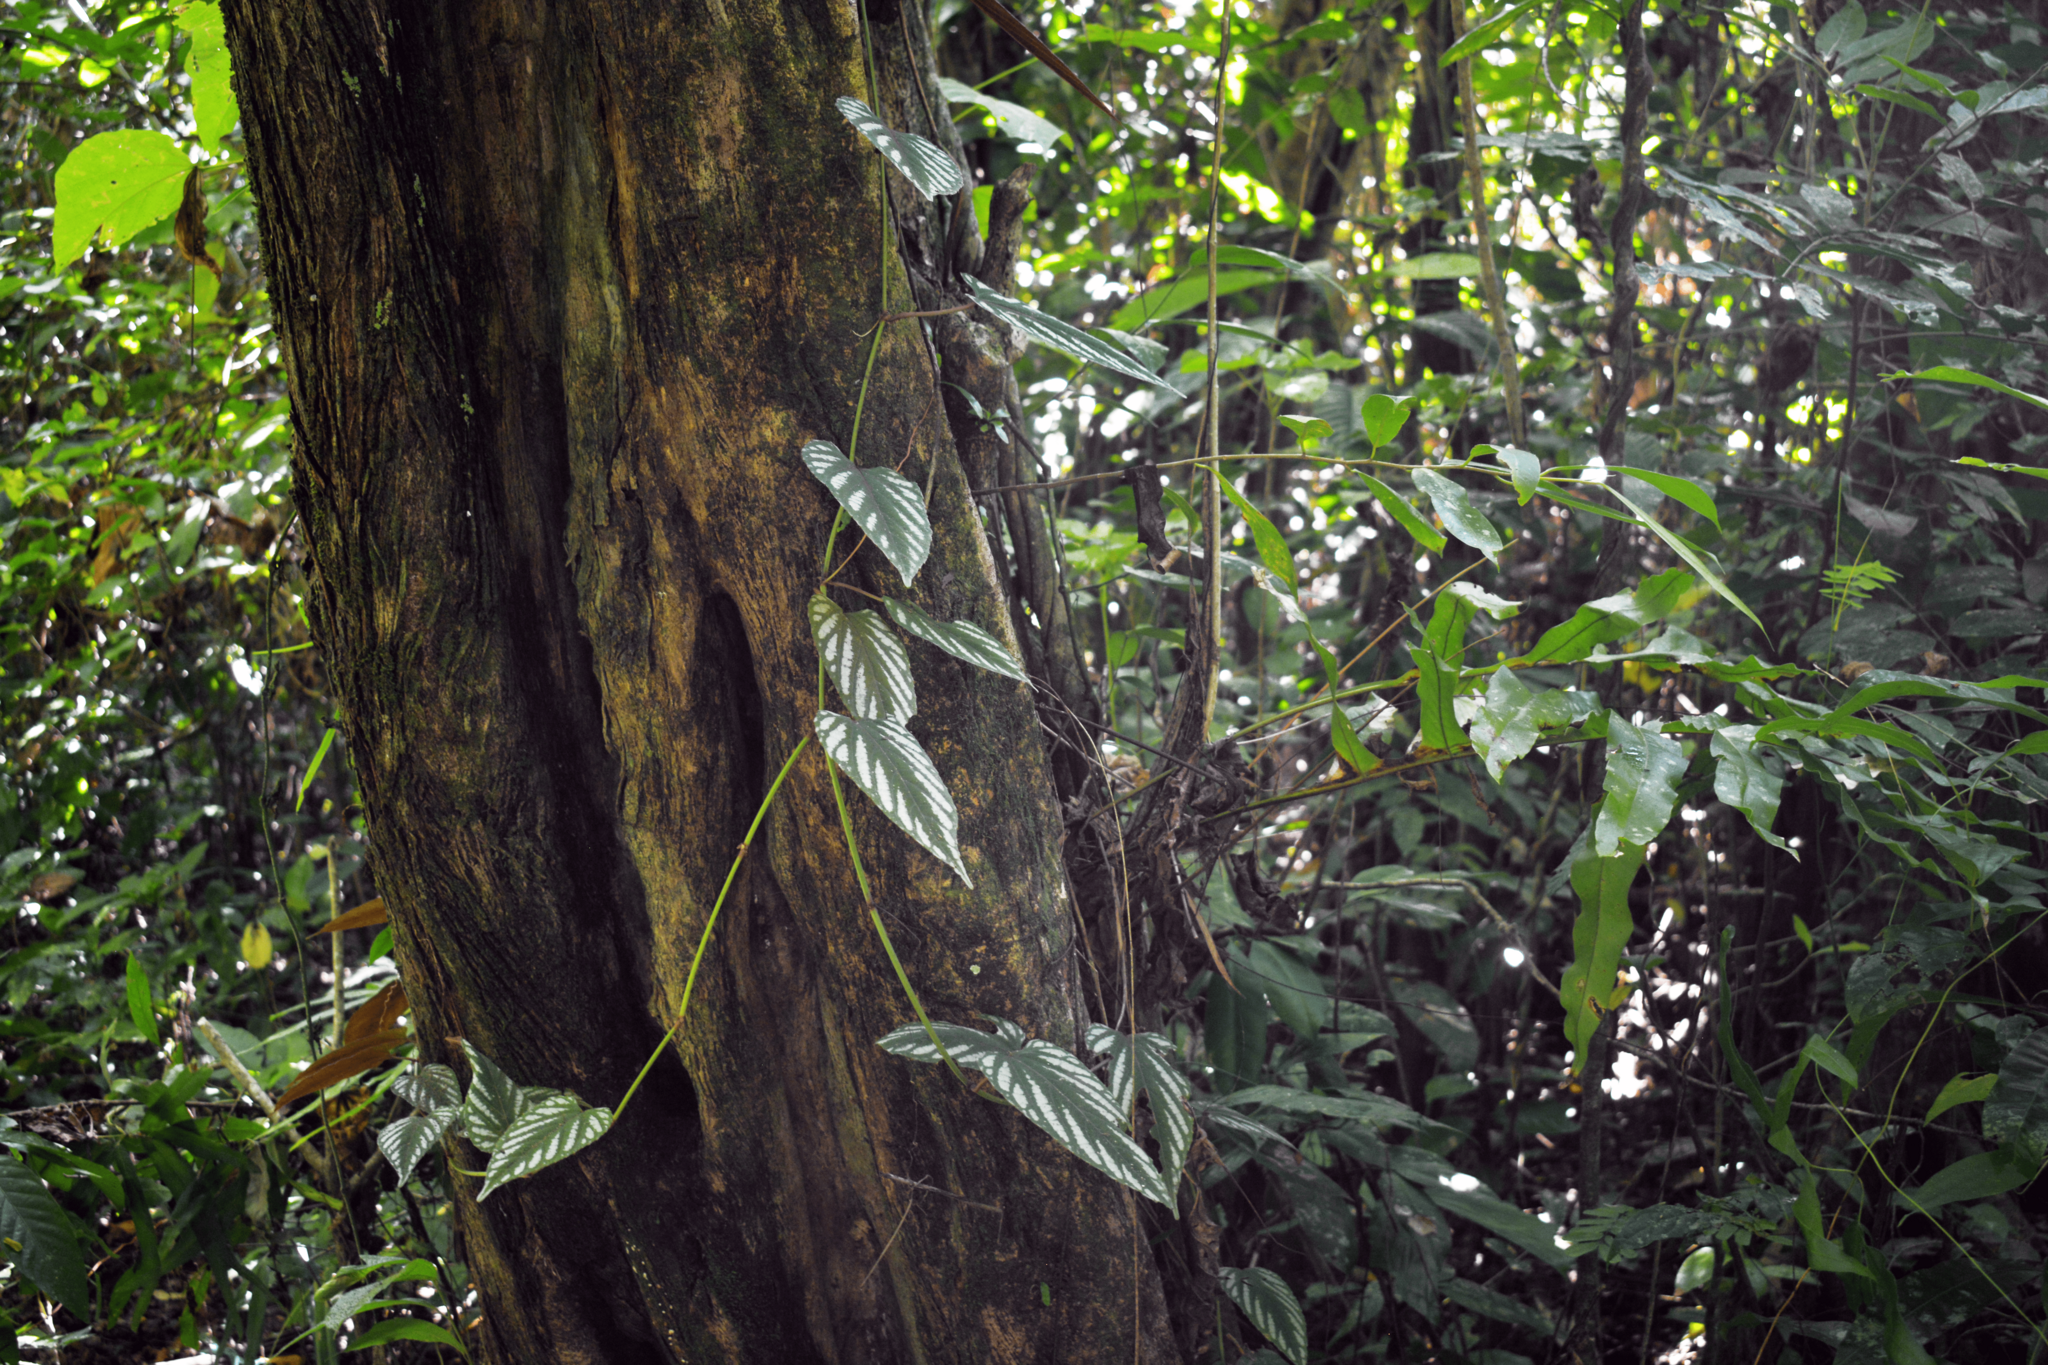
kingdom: Plantae
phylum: Tracheophyta
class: Magnoliopsida
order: Vitales
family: Vitaceae
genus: Cissus
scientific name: Cissus discolor
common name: Climbing-begonia
